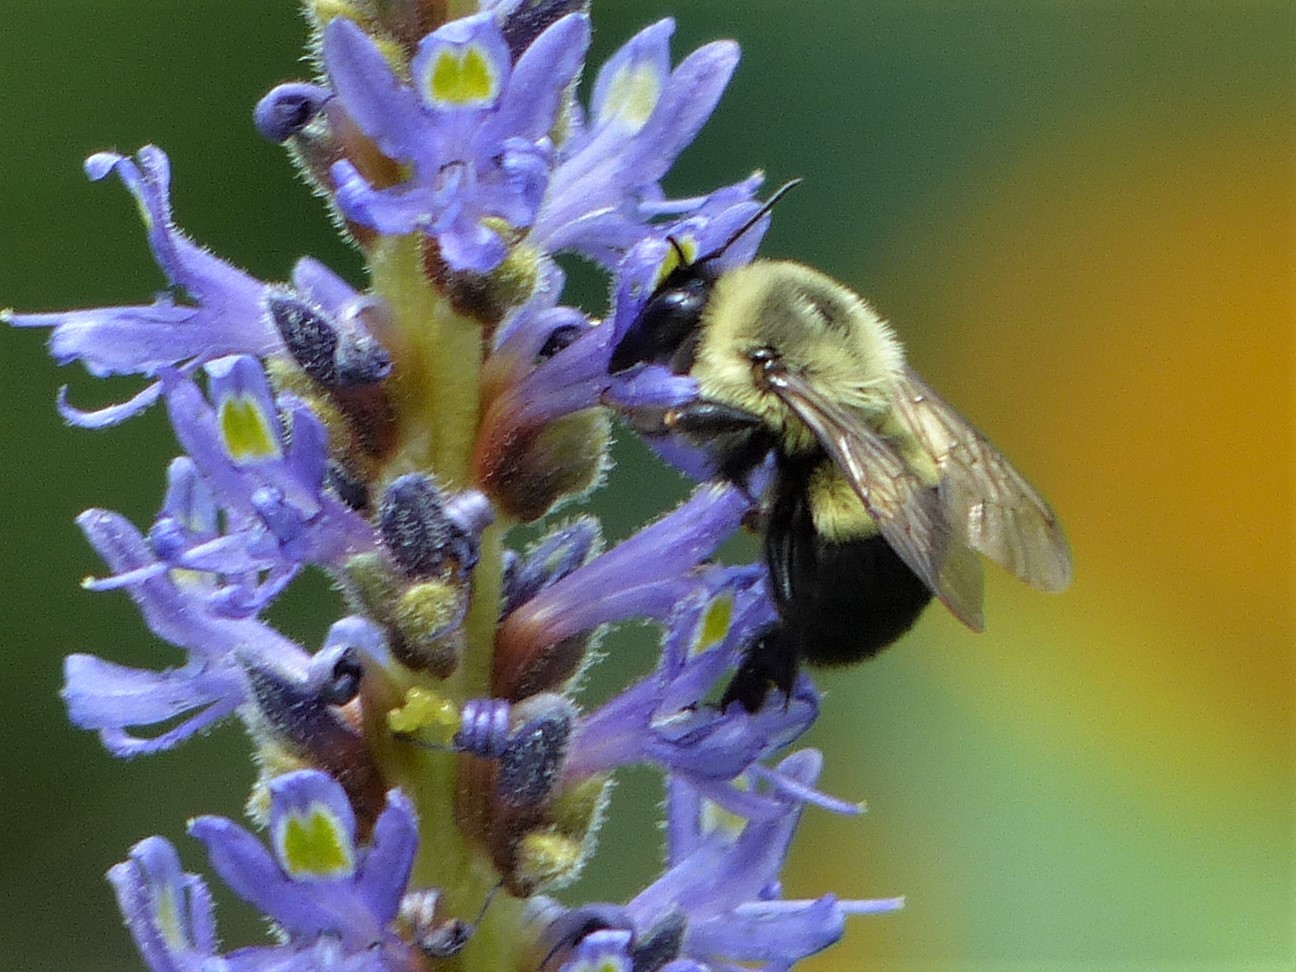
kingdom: Animalia
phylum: Arthropoda
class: Insecta
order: Hymenoptera
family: Apidae
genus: Bombus
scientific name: Bombus impatiens
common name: Common eastern bumble bee
